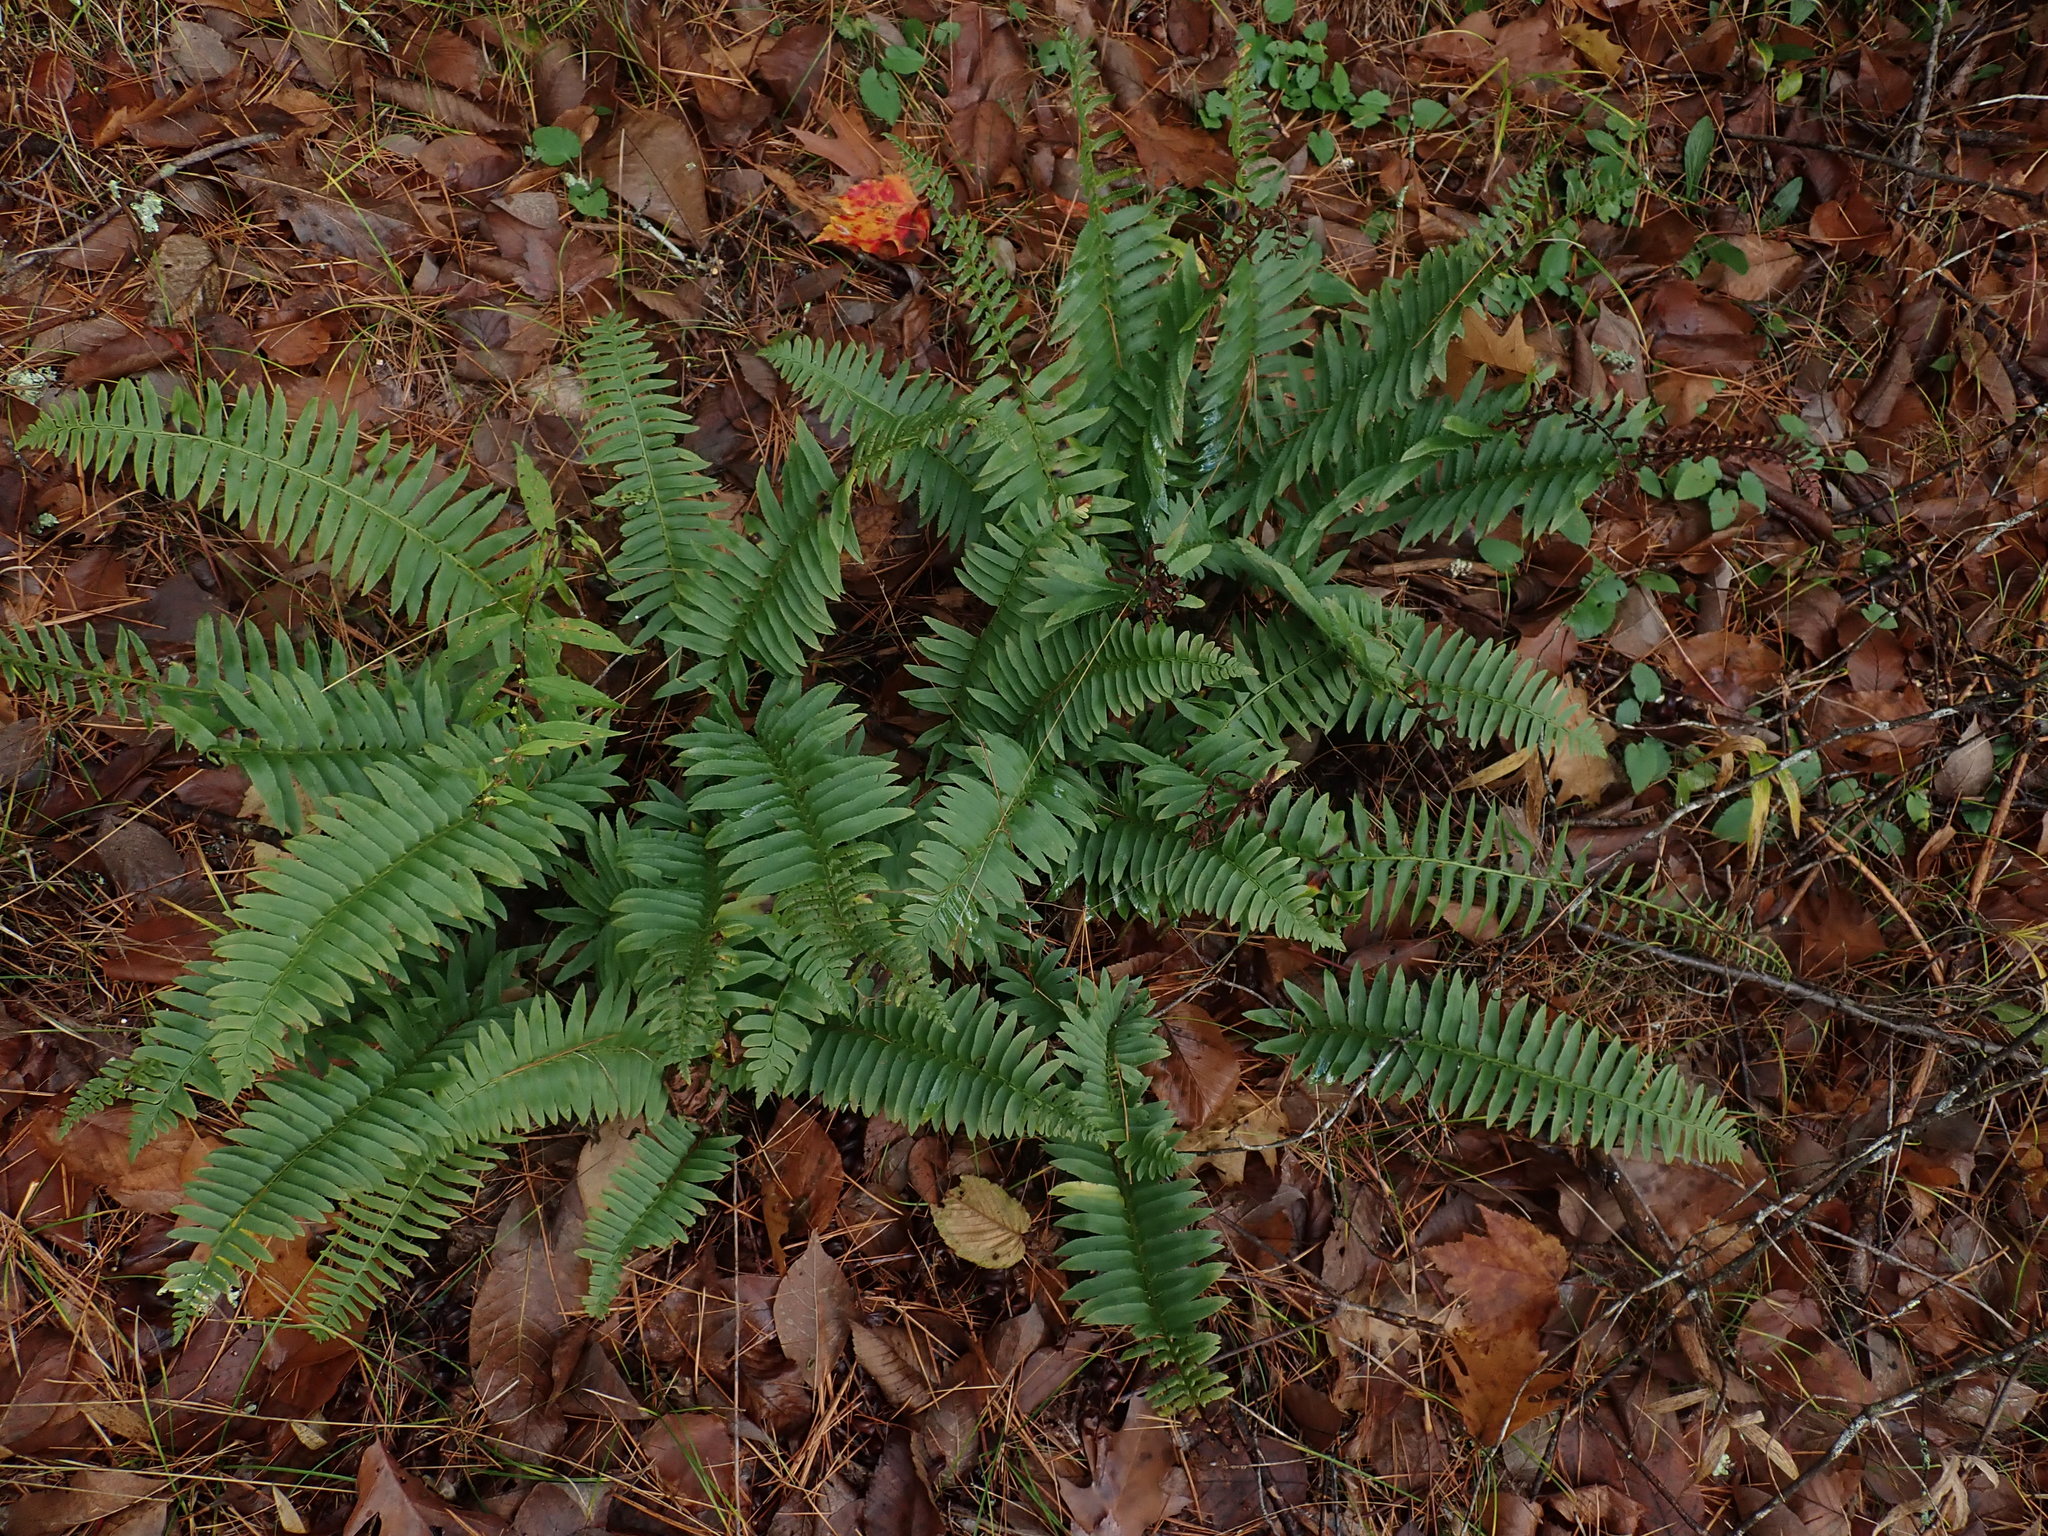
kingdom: Plantae
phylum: Tracheophyta
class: Polypodiopsida
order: Polypodiales
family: Dryopteridaceae
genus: Polystichum
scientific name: Polystichum acrostichoides
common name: Christmas fern
